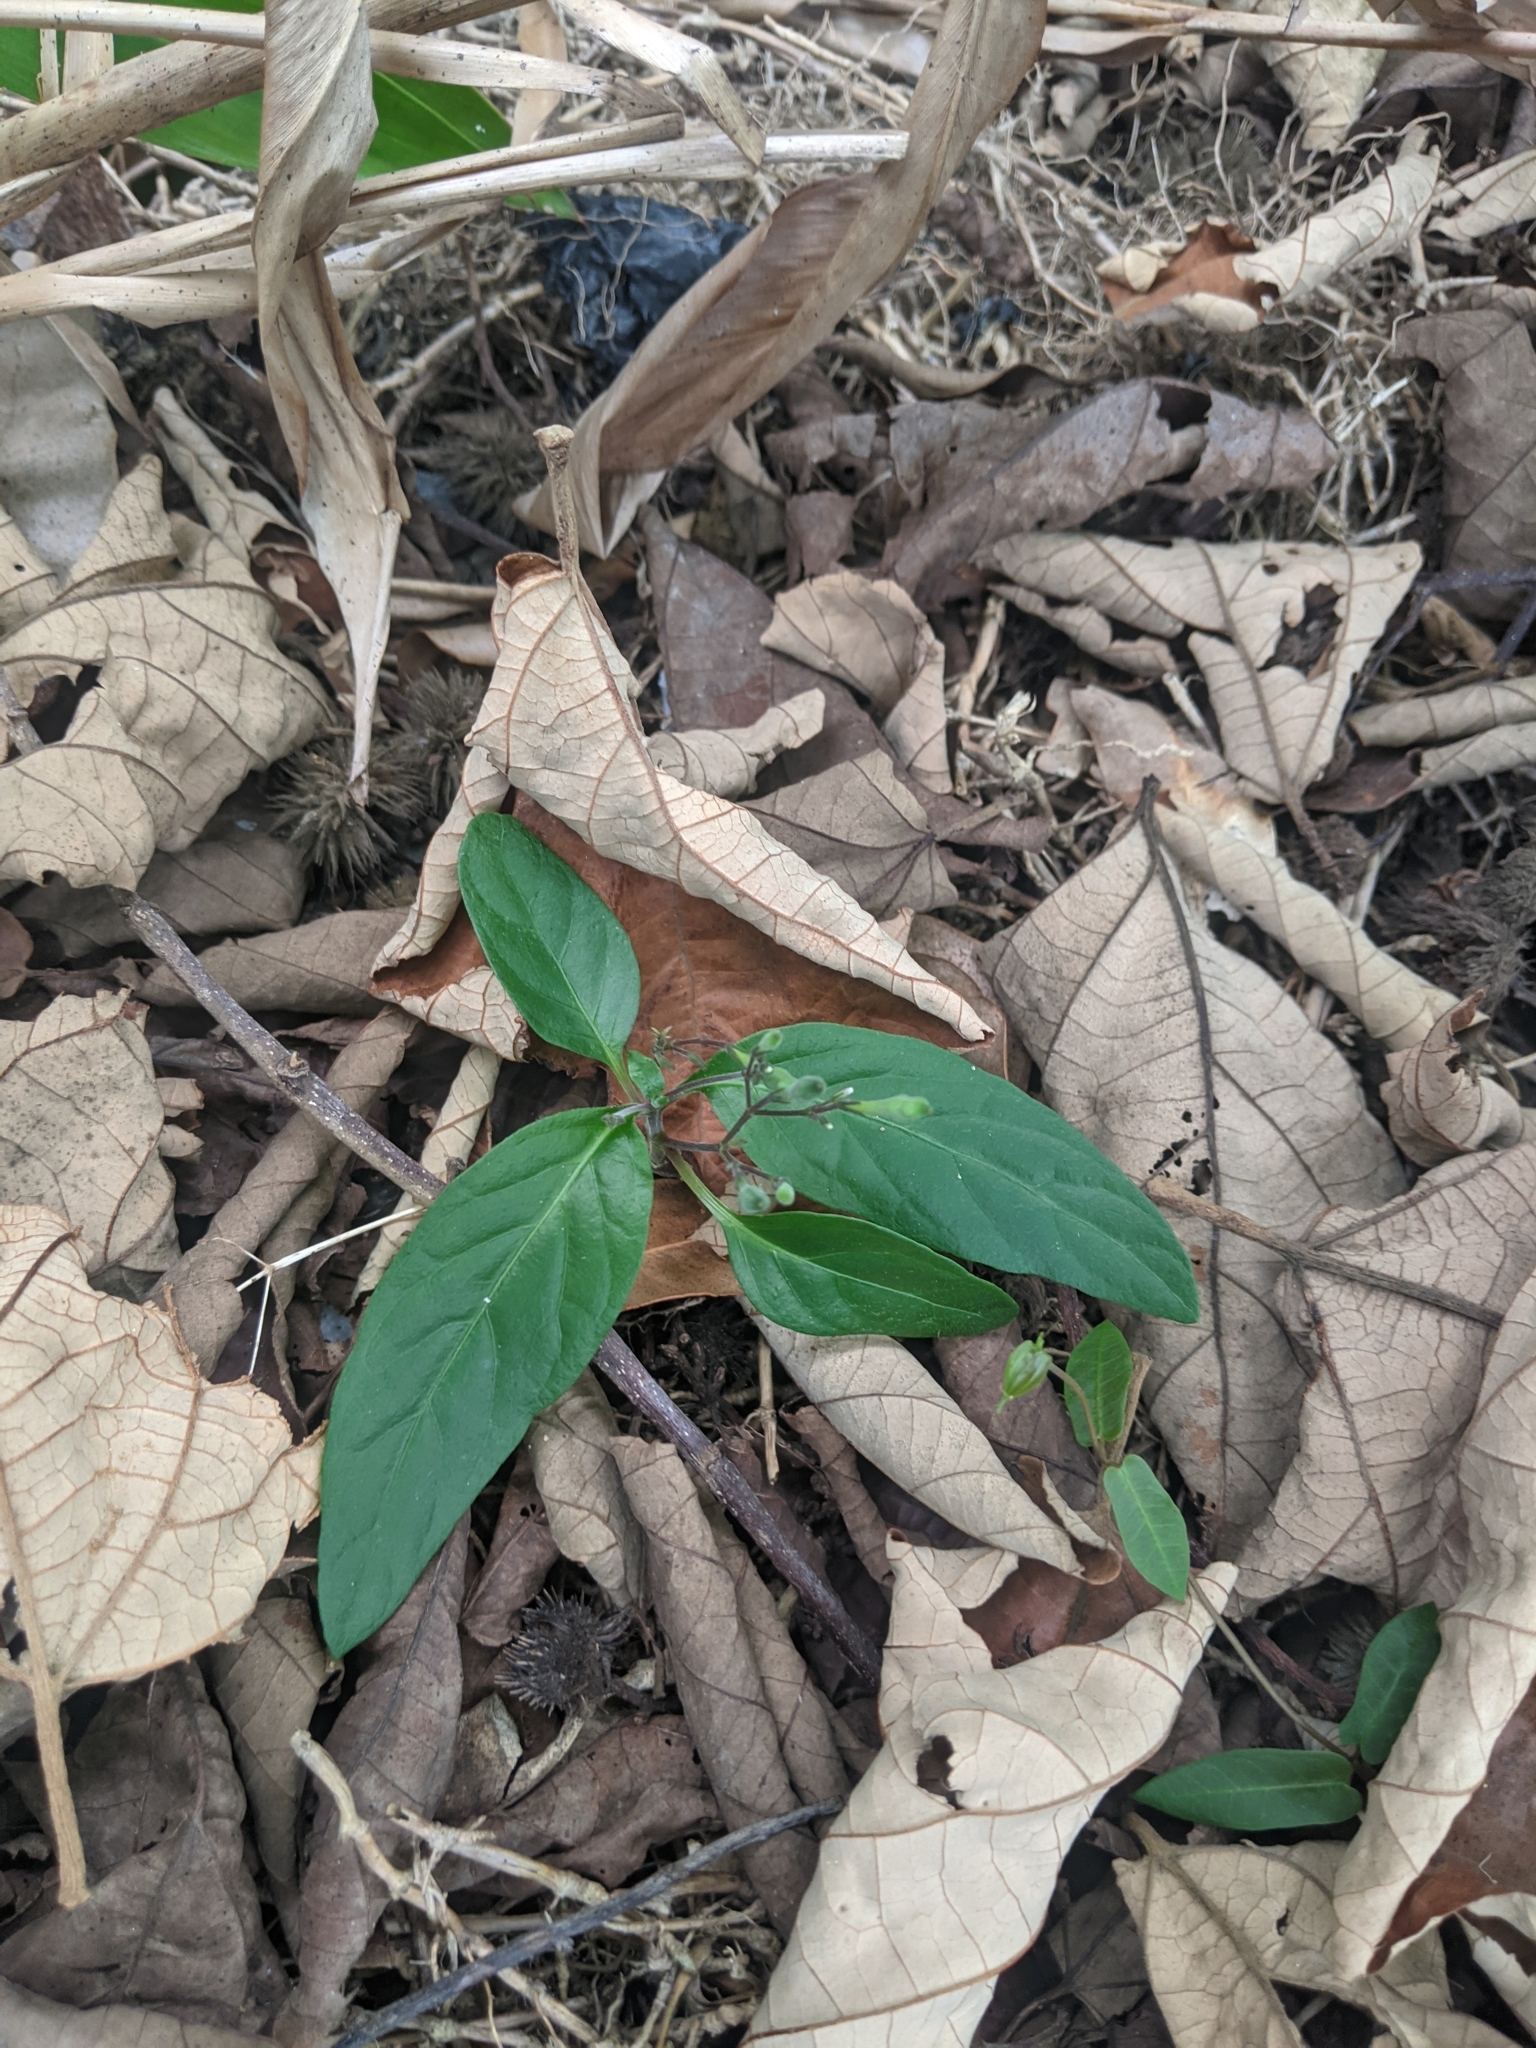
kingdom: Plantae
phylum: Tracheophyta
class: Magnoliopsida
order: Lamiales
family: Acanthaceae
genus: Pseuderanthemum
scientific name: Pseuderanthemum variabile
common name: Night and afternoon
